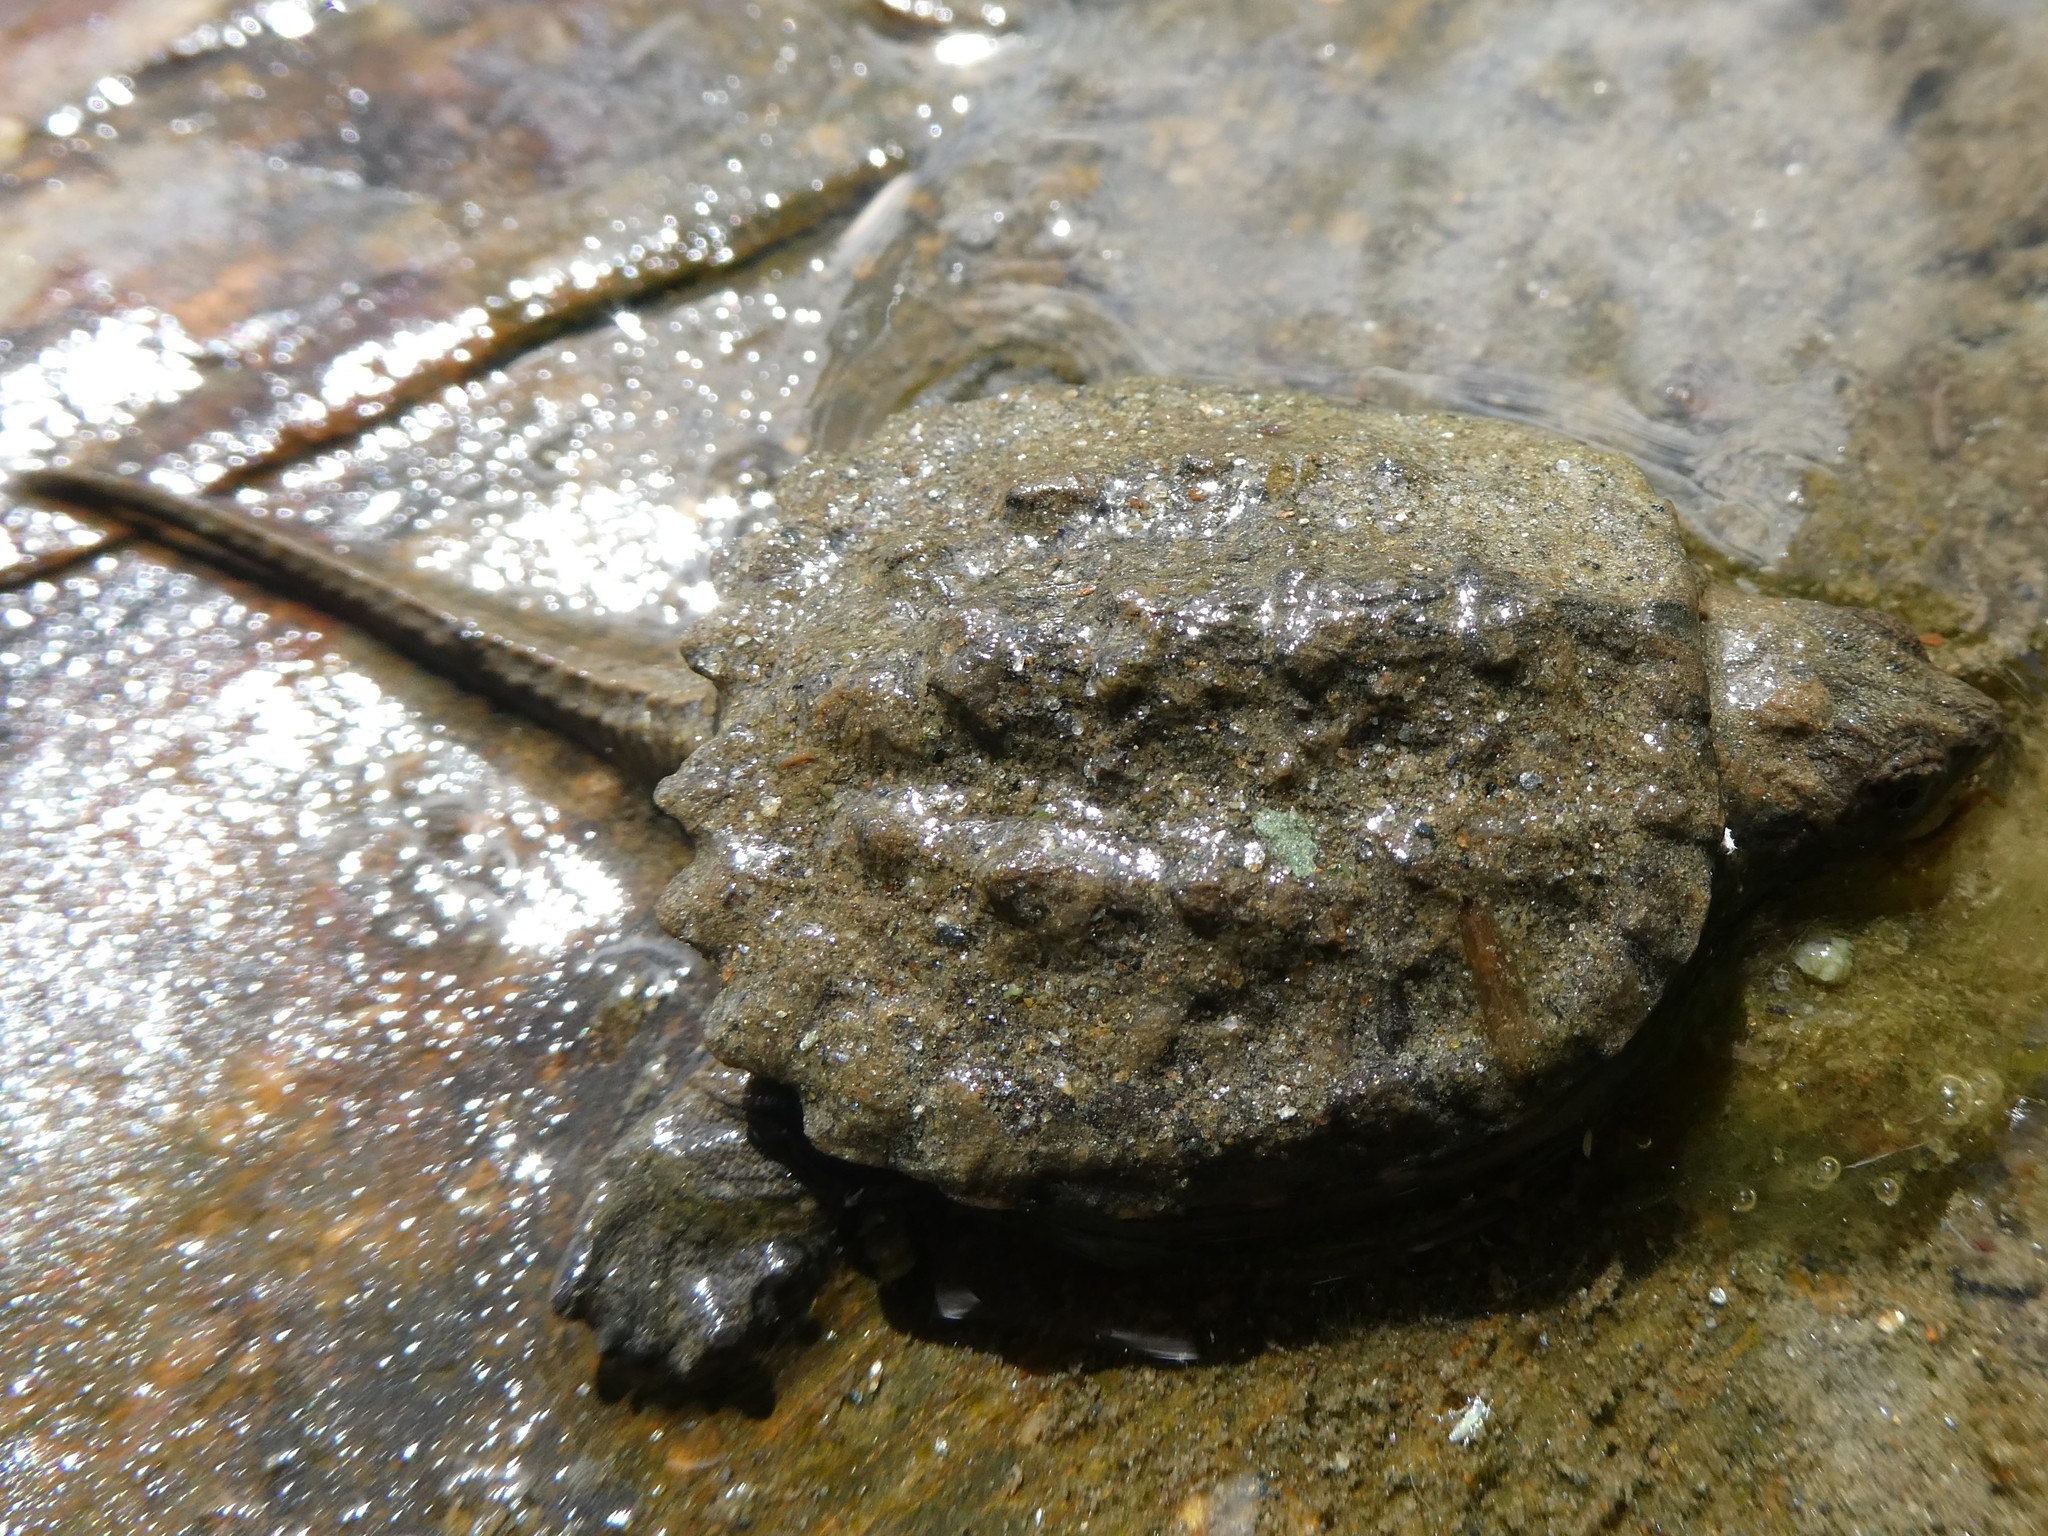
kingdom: Animalia
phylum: Chordata
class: Testudines
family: Chelydridae
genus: Chelydra
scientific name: Chelydra serpentina
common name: Common snapping turtle
